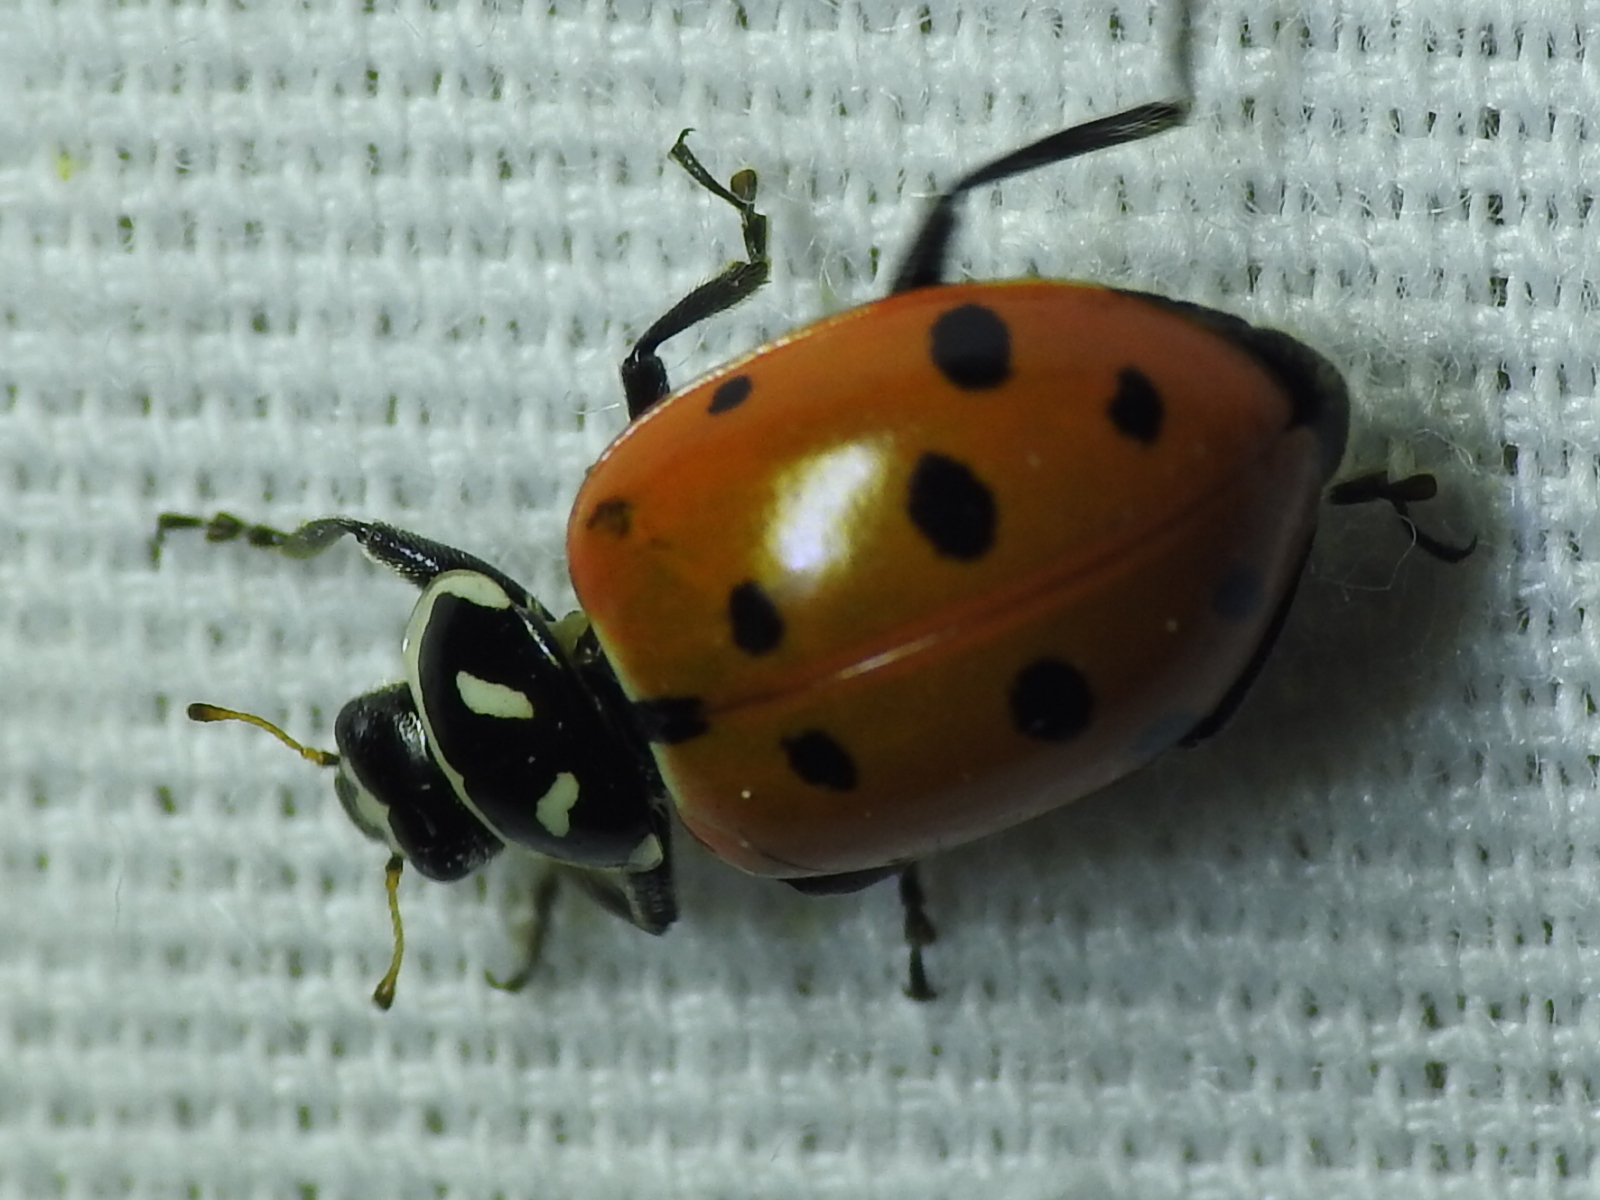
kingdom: Animalia
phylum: Arthropoda
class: Insecta
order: Coleoptera
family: Coccinellidae
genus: Hippodamia
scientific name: Hippodamia convergens
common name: Convergent lady beetle
